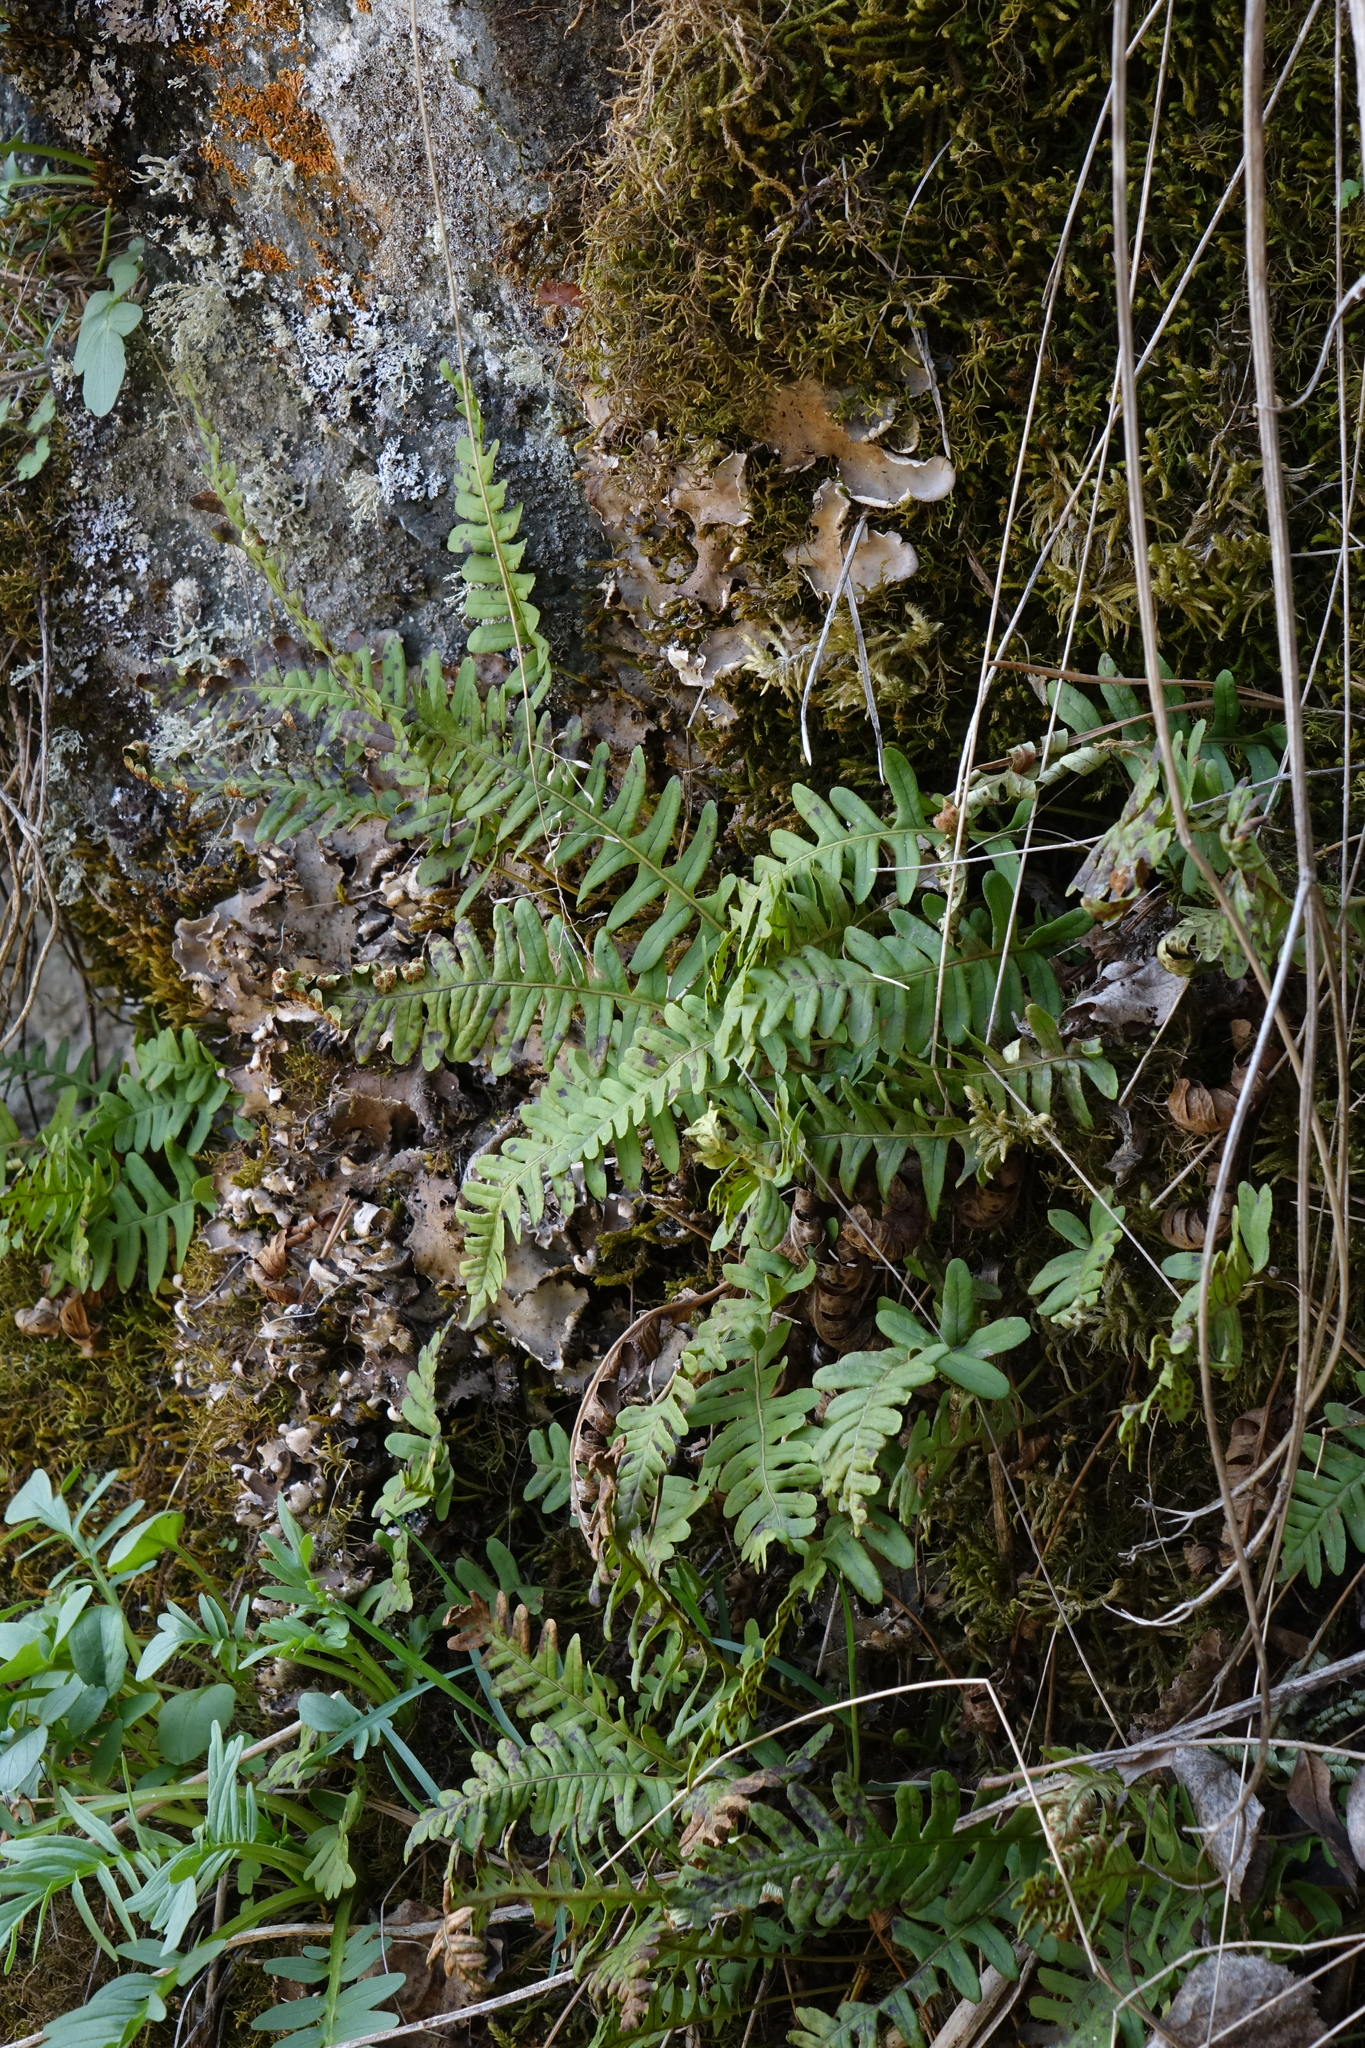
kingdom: Plantae
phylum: Tracheophyta
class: Polypodiopsida
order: Polypodiales
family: Polypodiaceae
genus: Polypodium
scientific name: Polypodium sibiricum
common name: Siberian polypody
